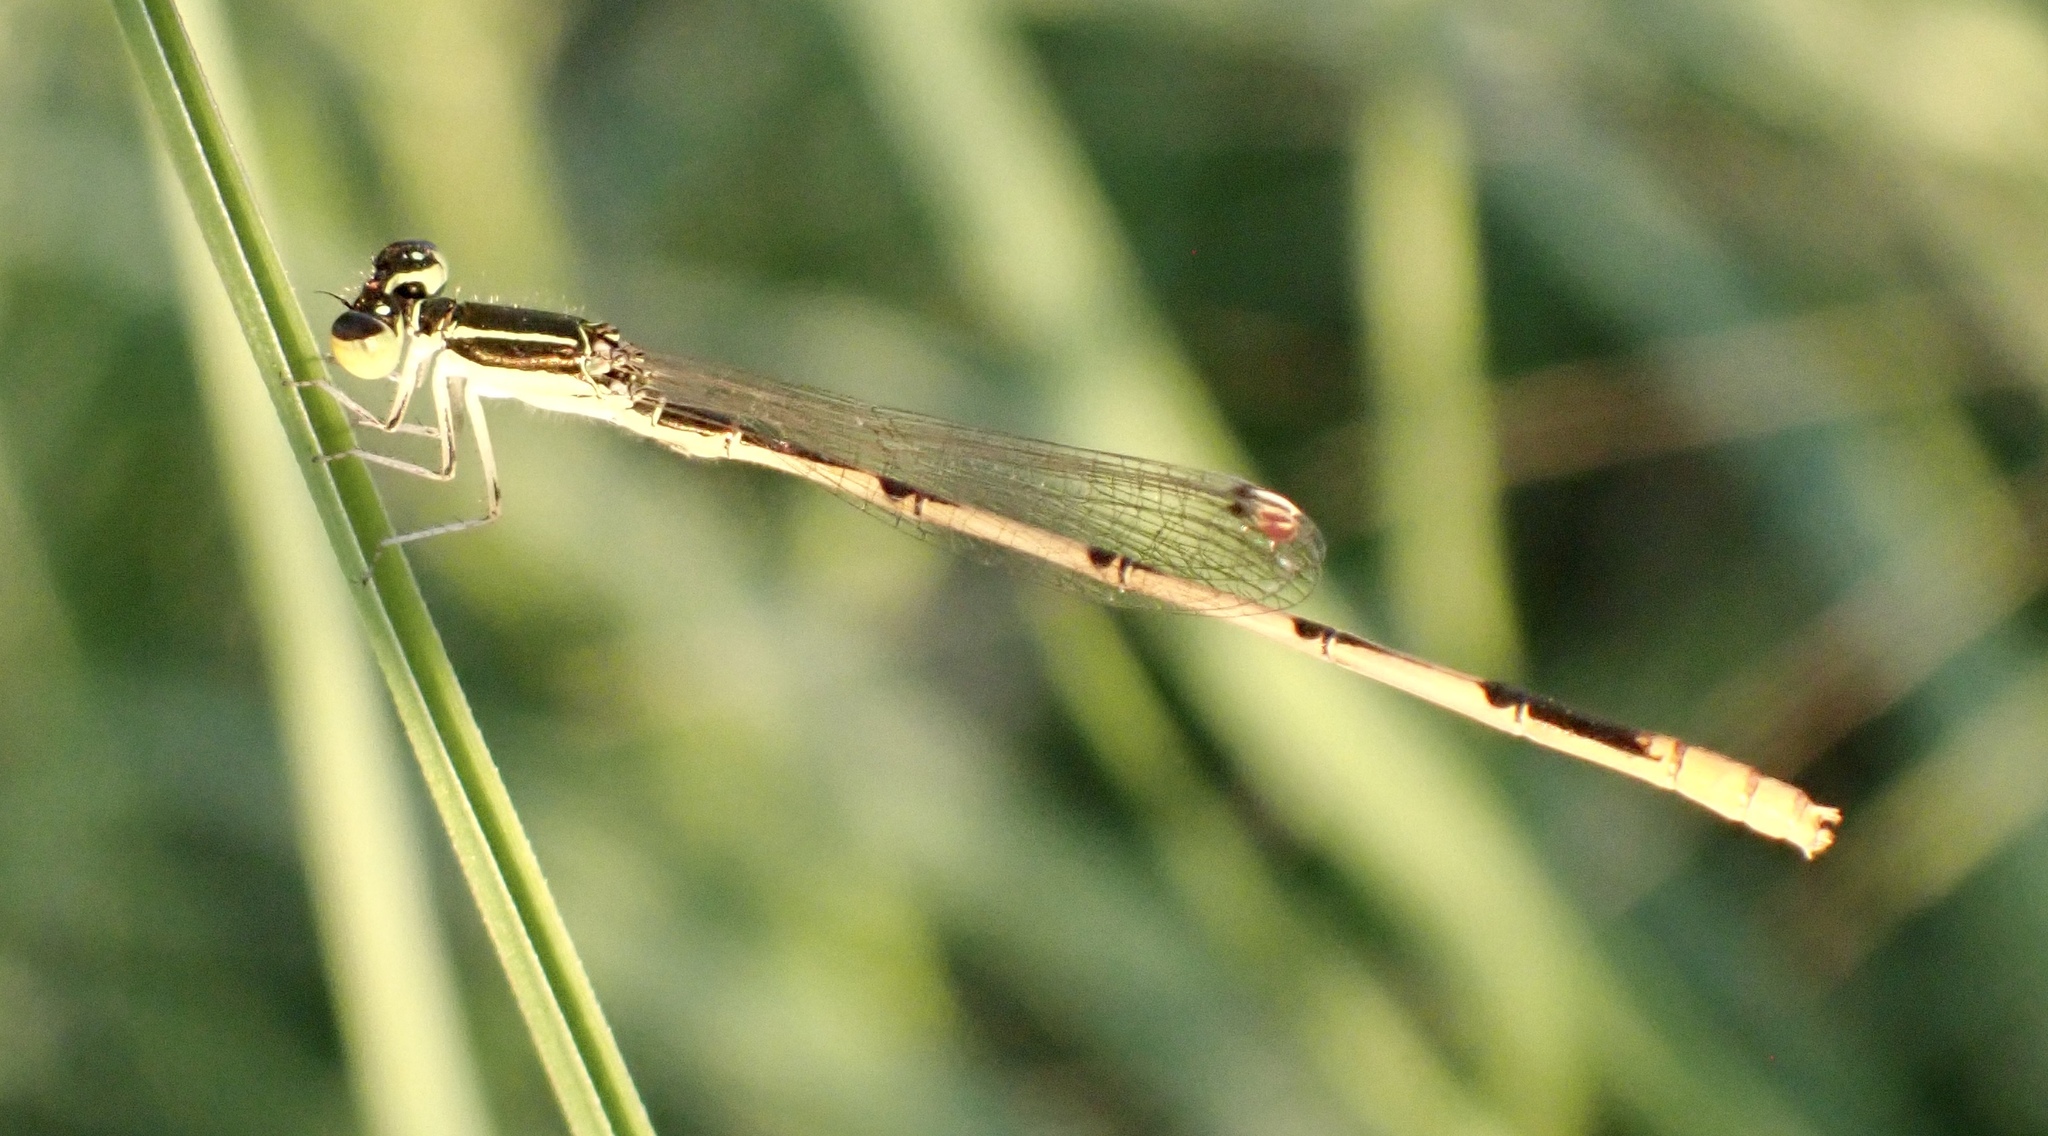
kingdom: Animalia
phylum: Arthropoda
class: Insecta
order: Odonata
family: Coenagrionidae
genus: Ischnura
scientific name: Ischnura hastata
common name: Citrine forktail
